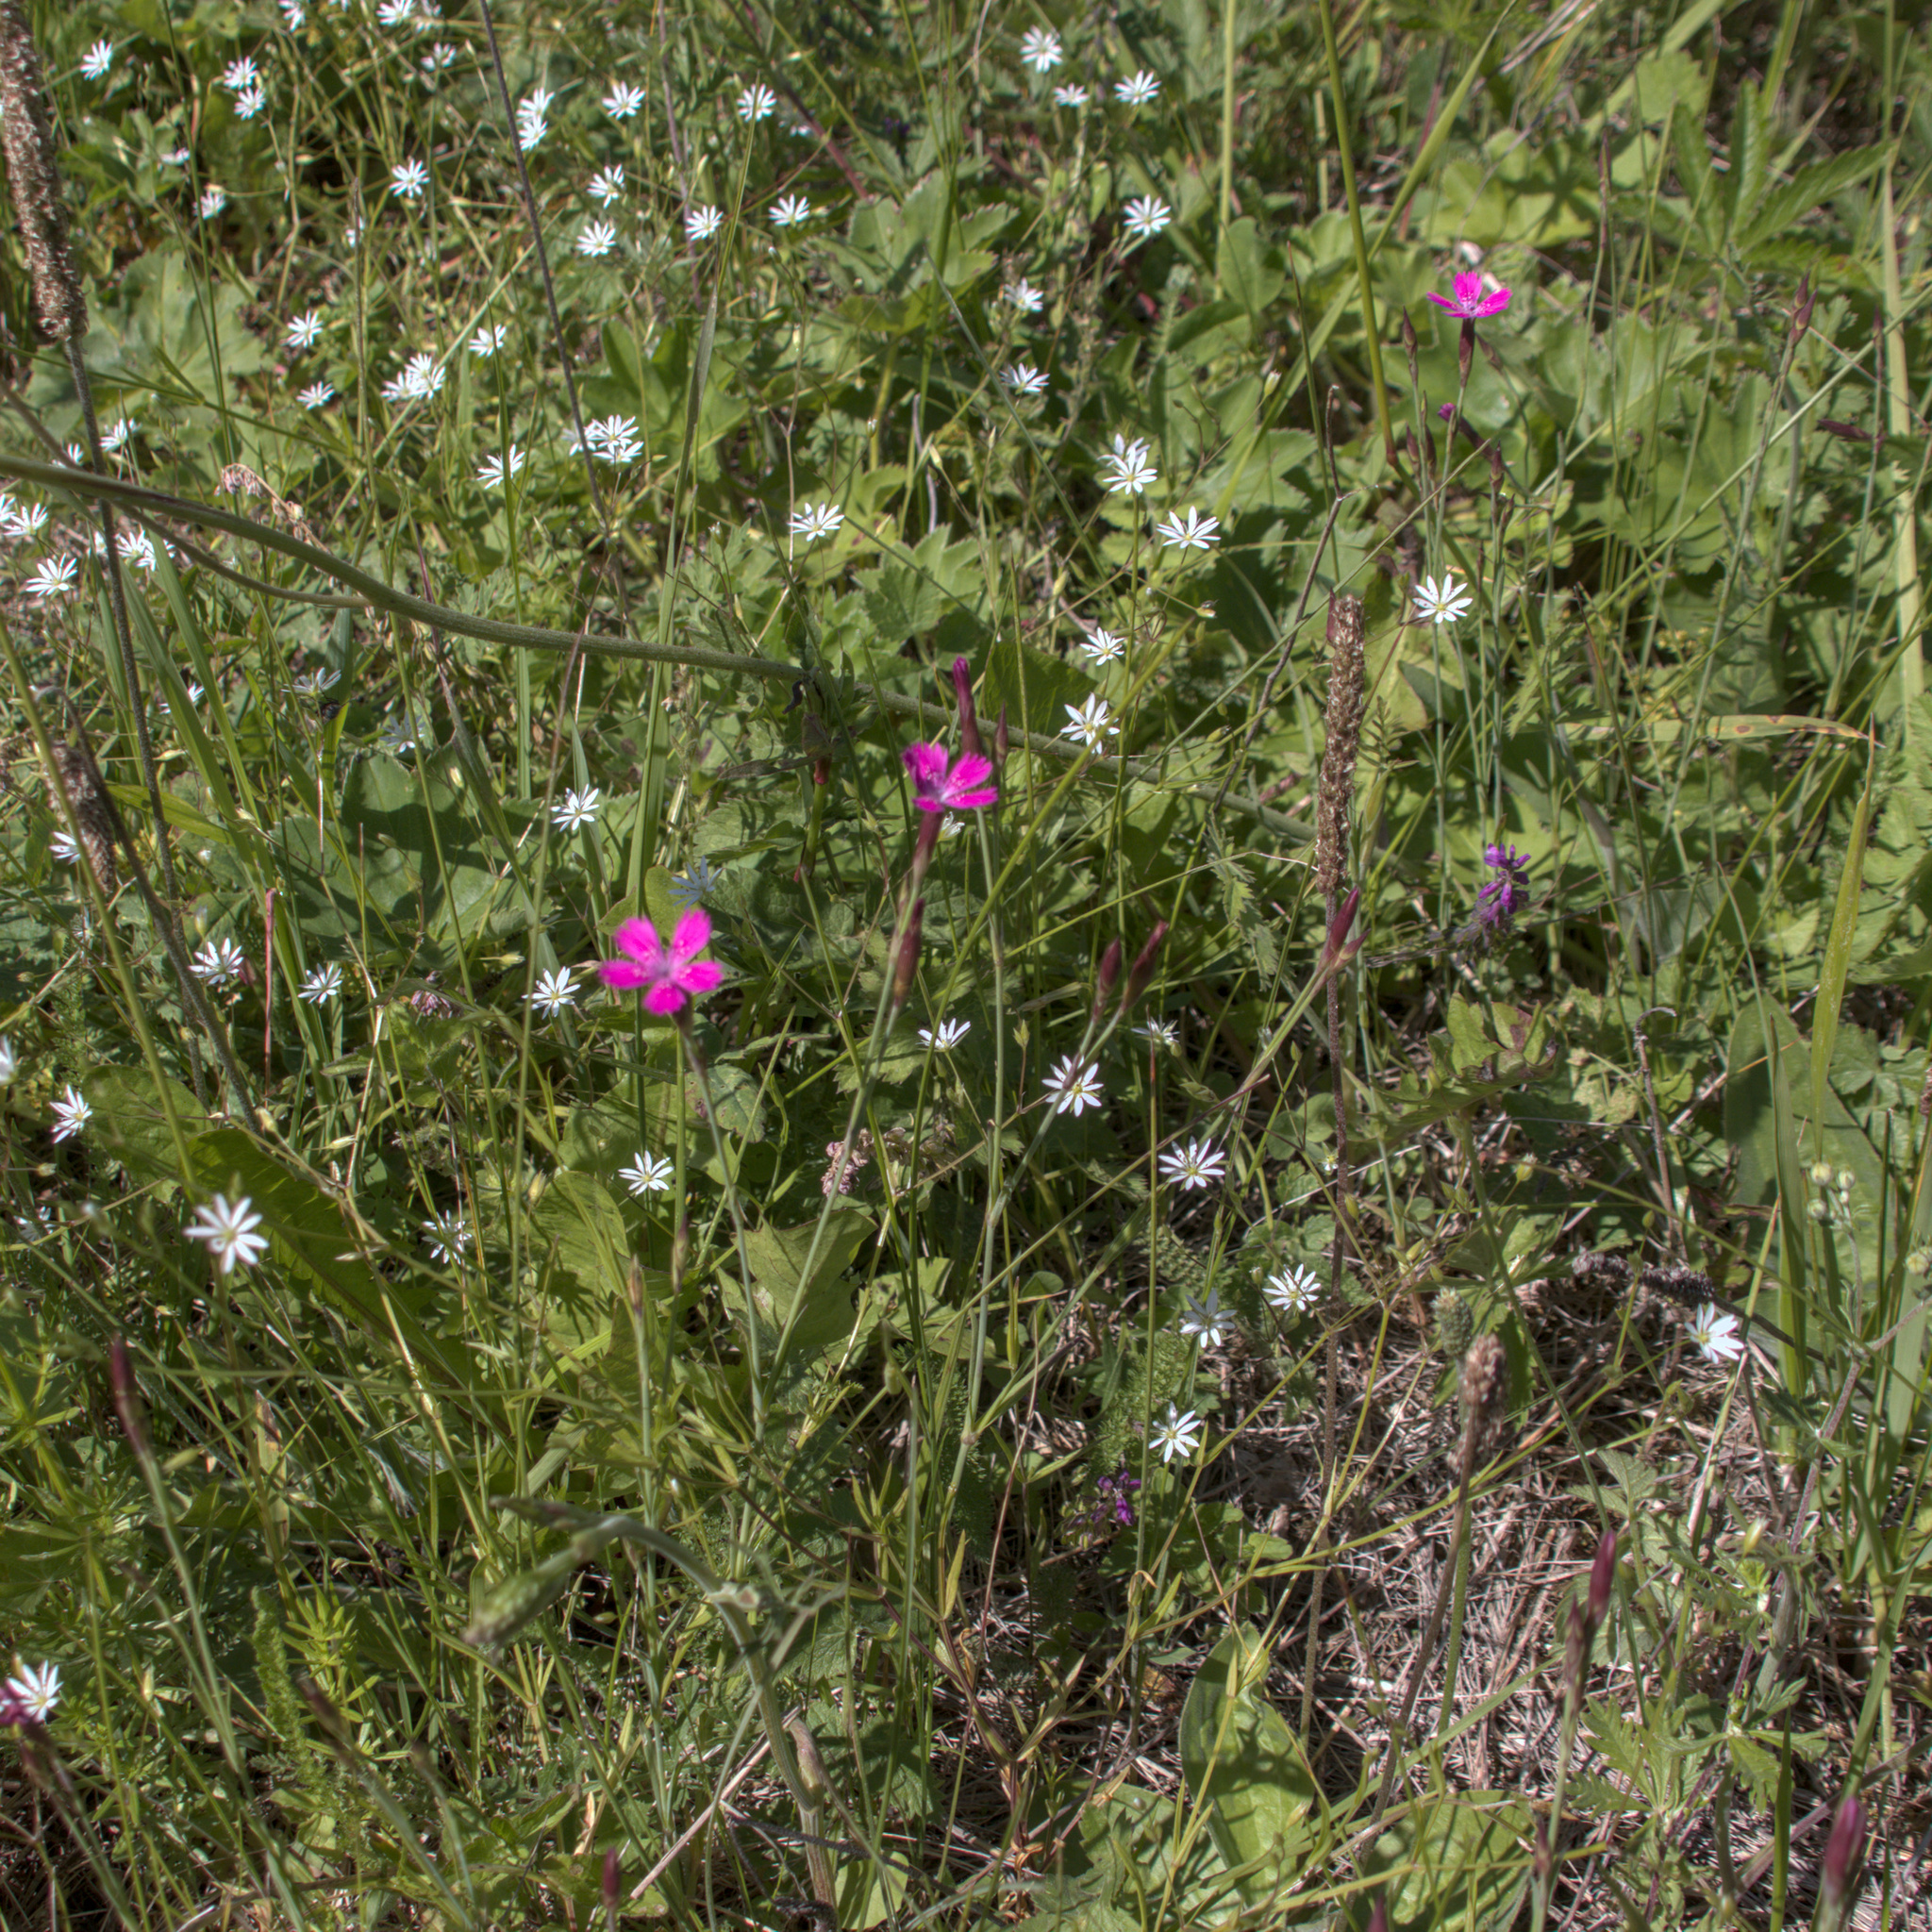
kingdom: Plantae
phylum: Tracheophyta
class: Magnoliopsida
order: Caryophyllales
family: Caryophyllaceae
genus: Dianthus
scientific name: Dianthus deltoides
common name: Maiden pink
